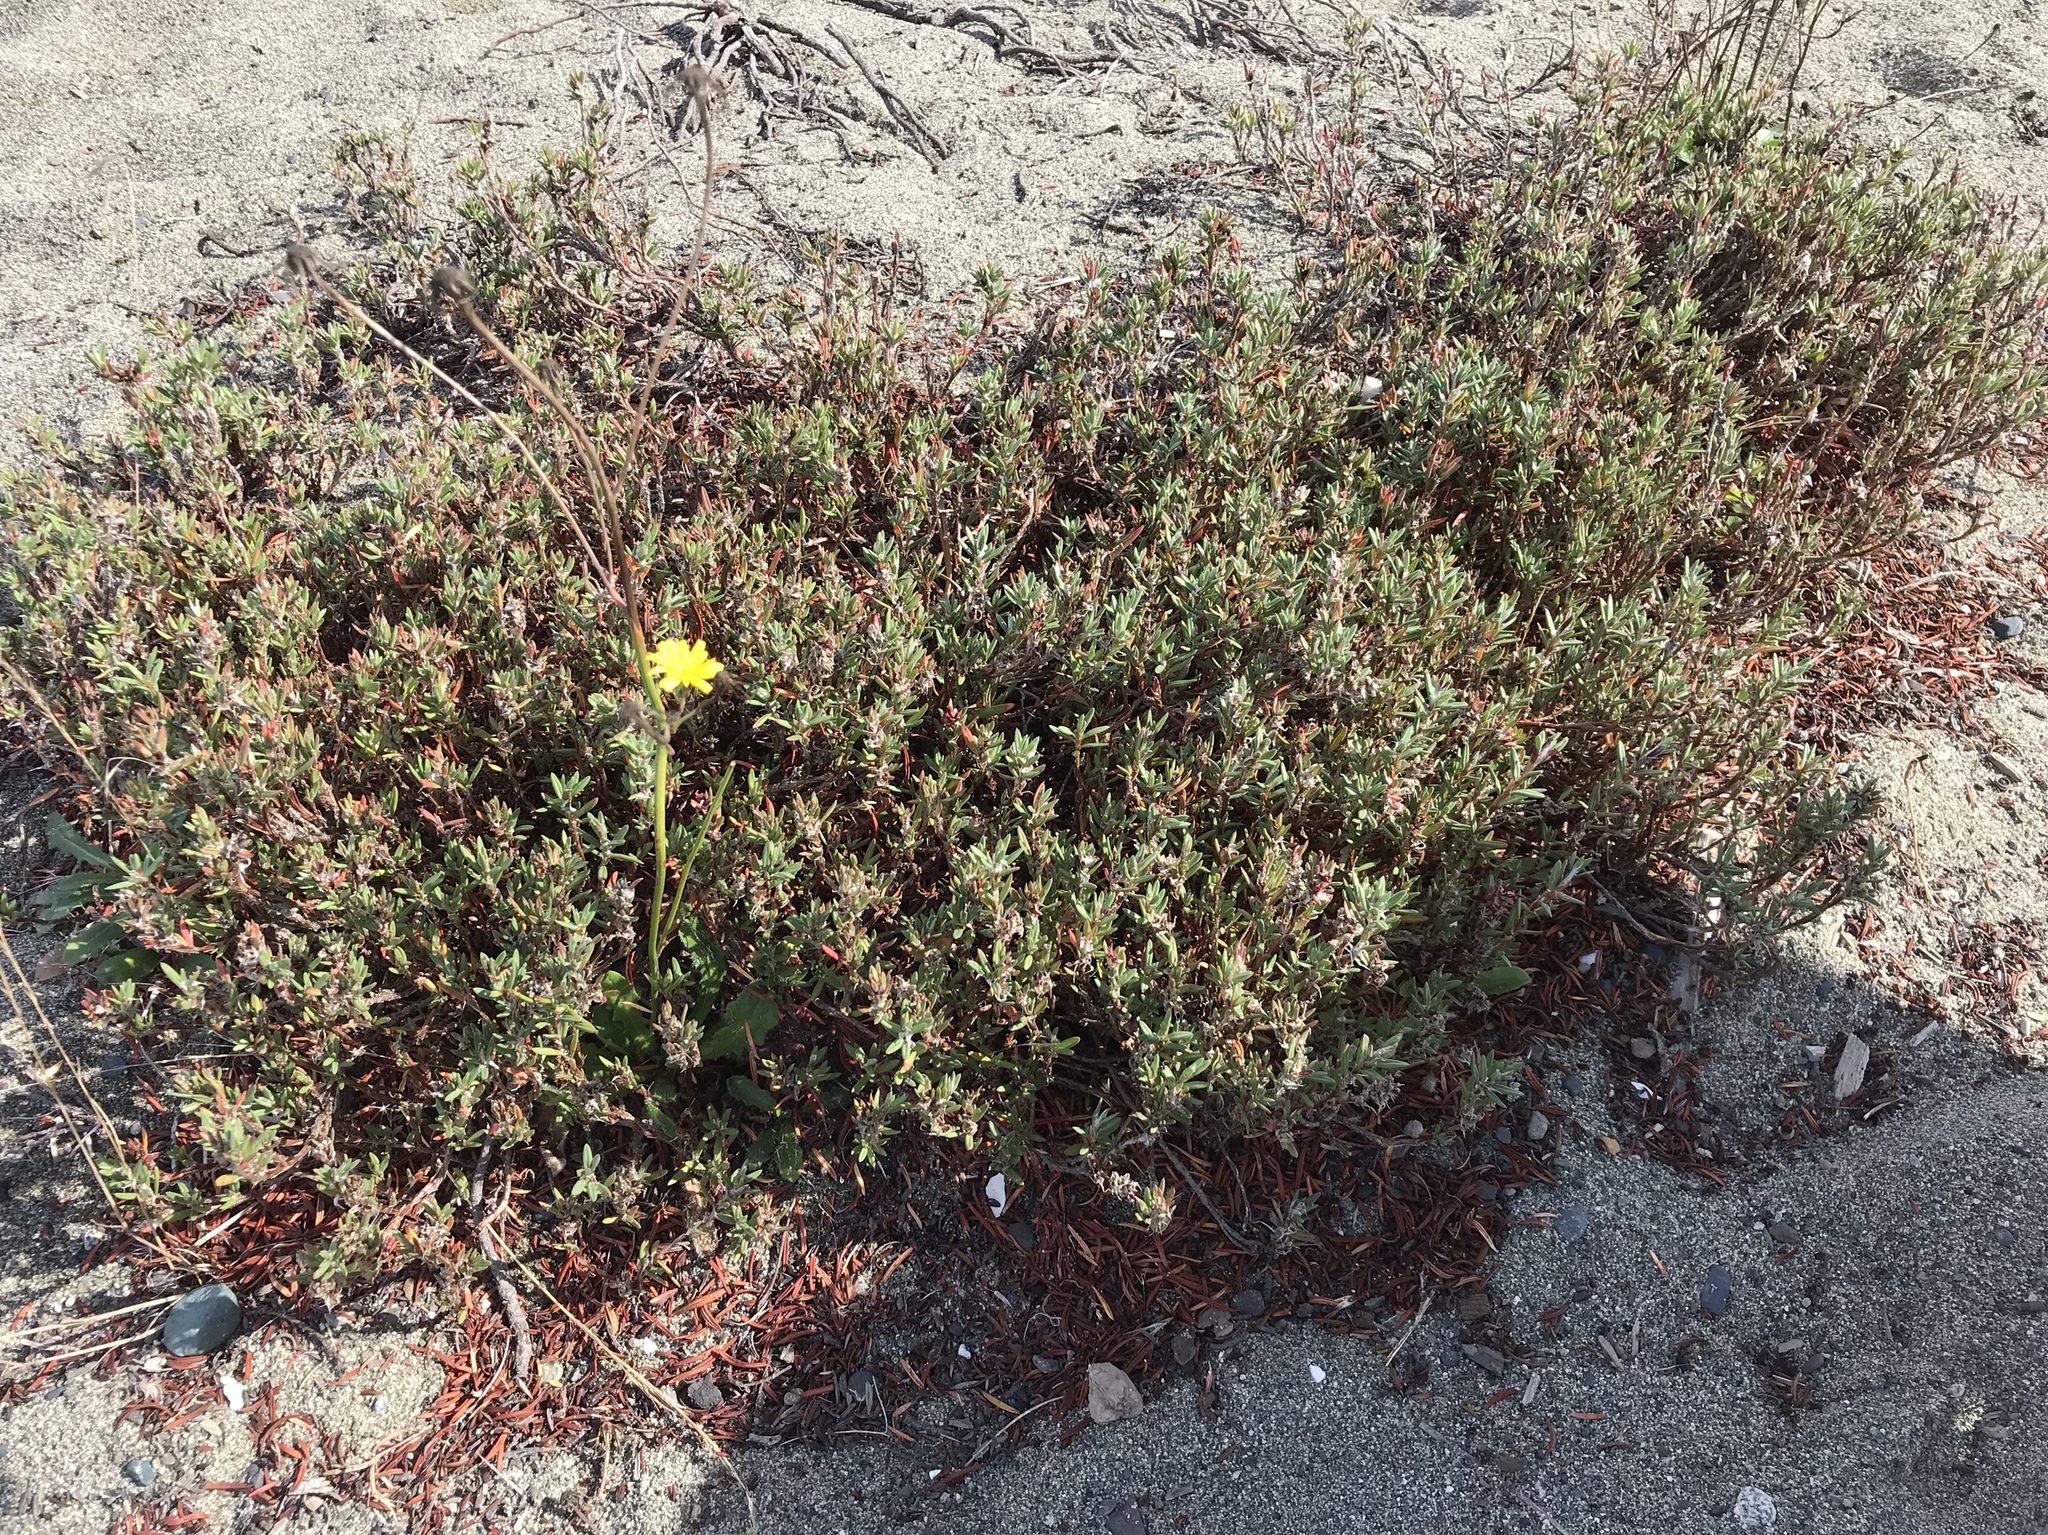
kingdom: Plantae
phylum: Tracheophyta
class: Magnoliopsida
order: Caryophyllales
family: Polygonaceae
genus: Polygonum
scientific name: Polygonum paronychia
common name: Dune knotweed
